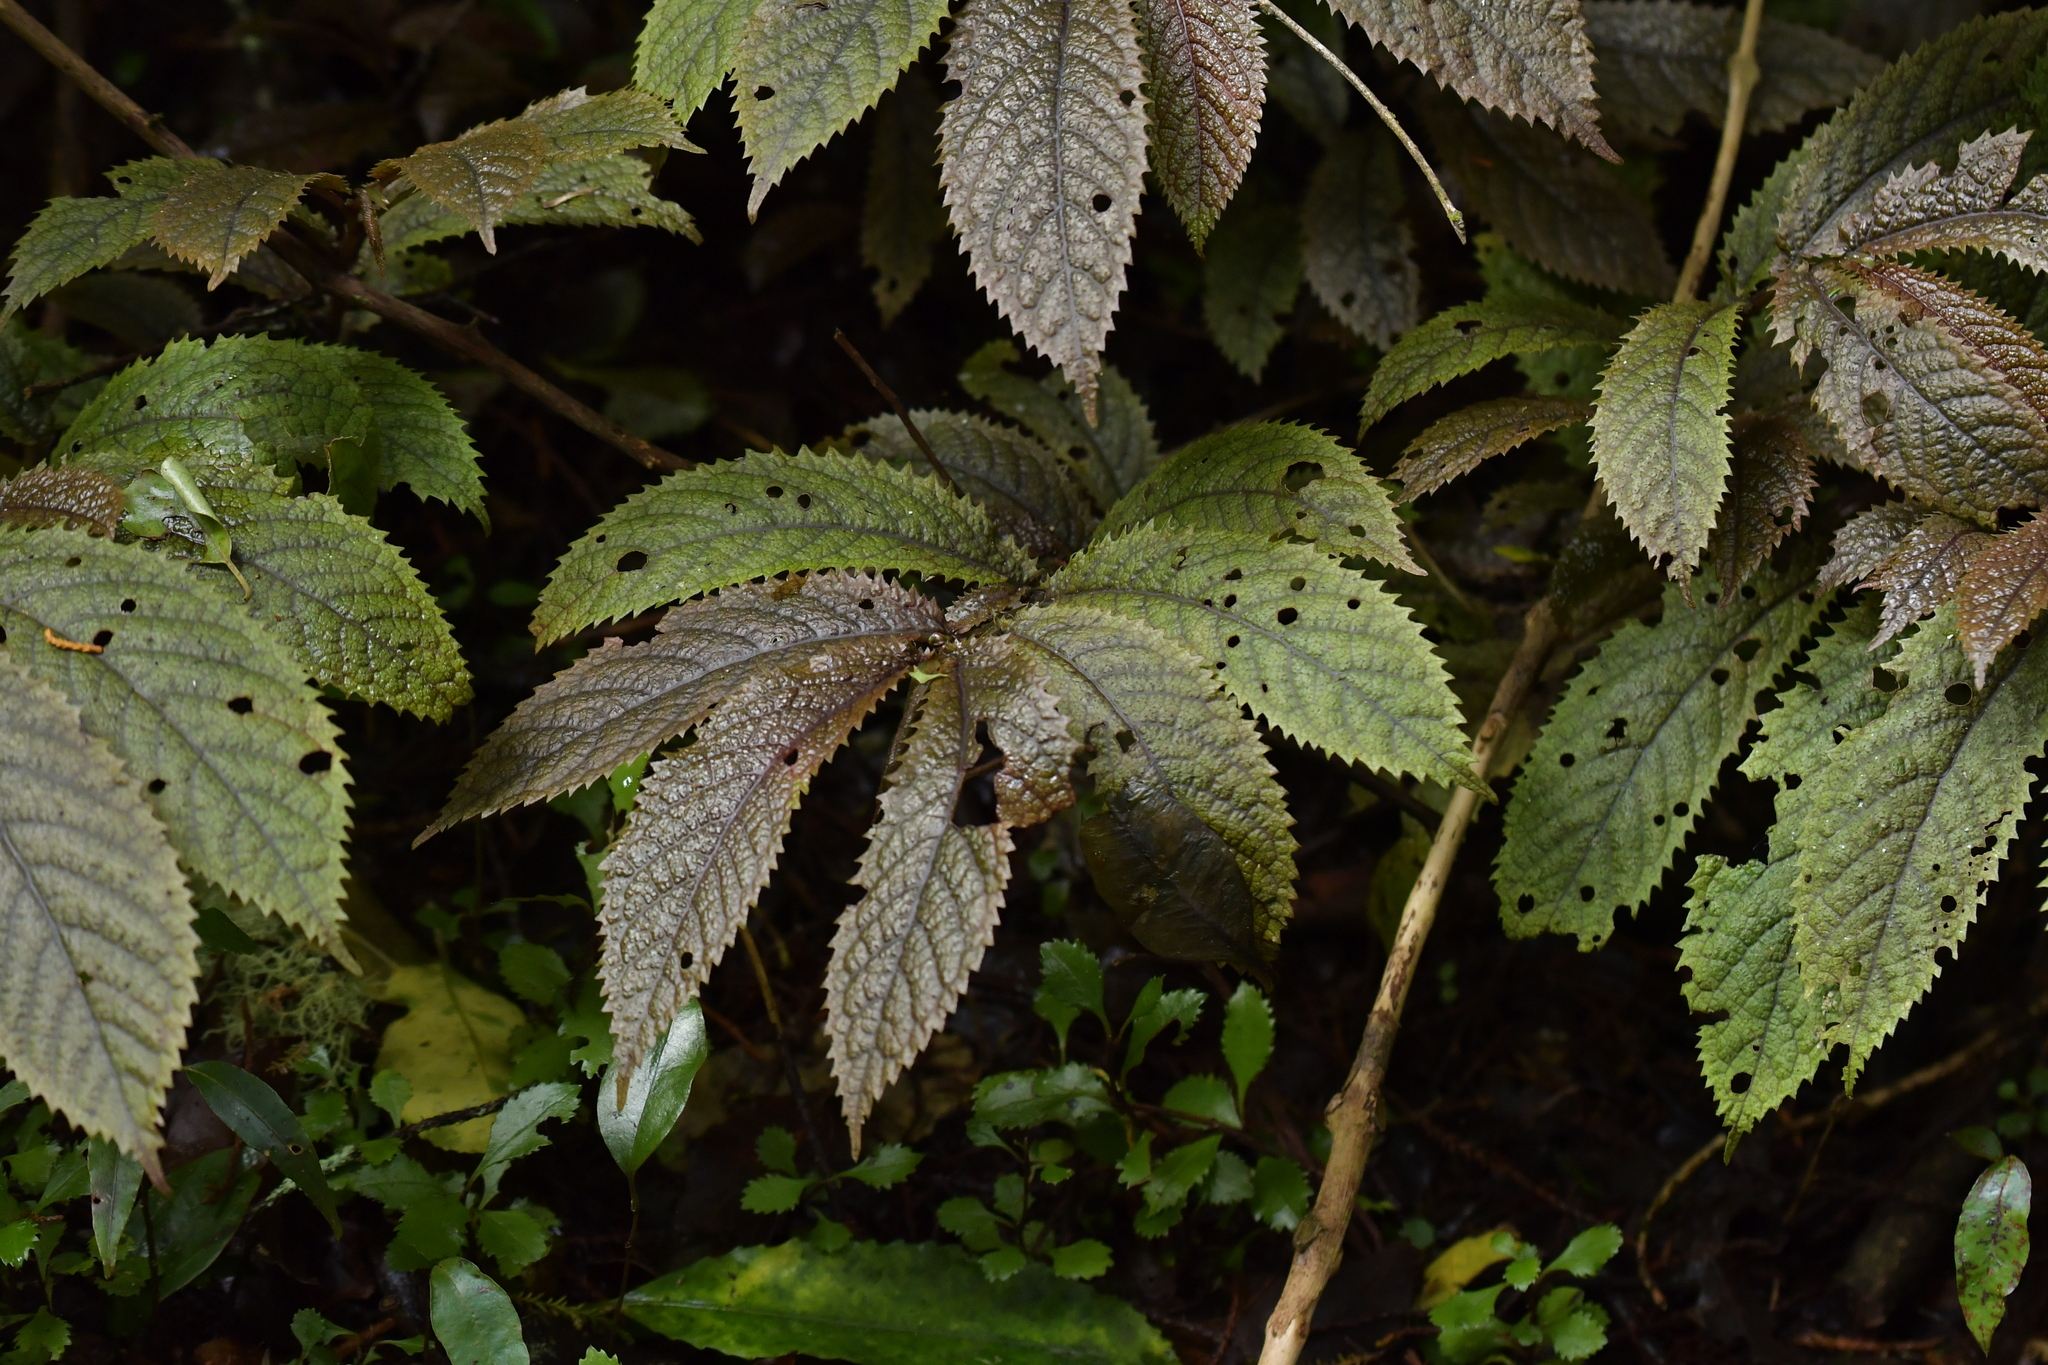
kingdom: Plantae
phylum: Tracheophyta
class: Magnoliopsida
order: Rosales
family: Urticaceae
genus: Elatostema
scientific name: Elatostema rugosum
